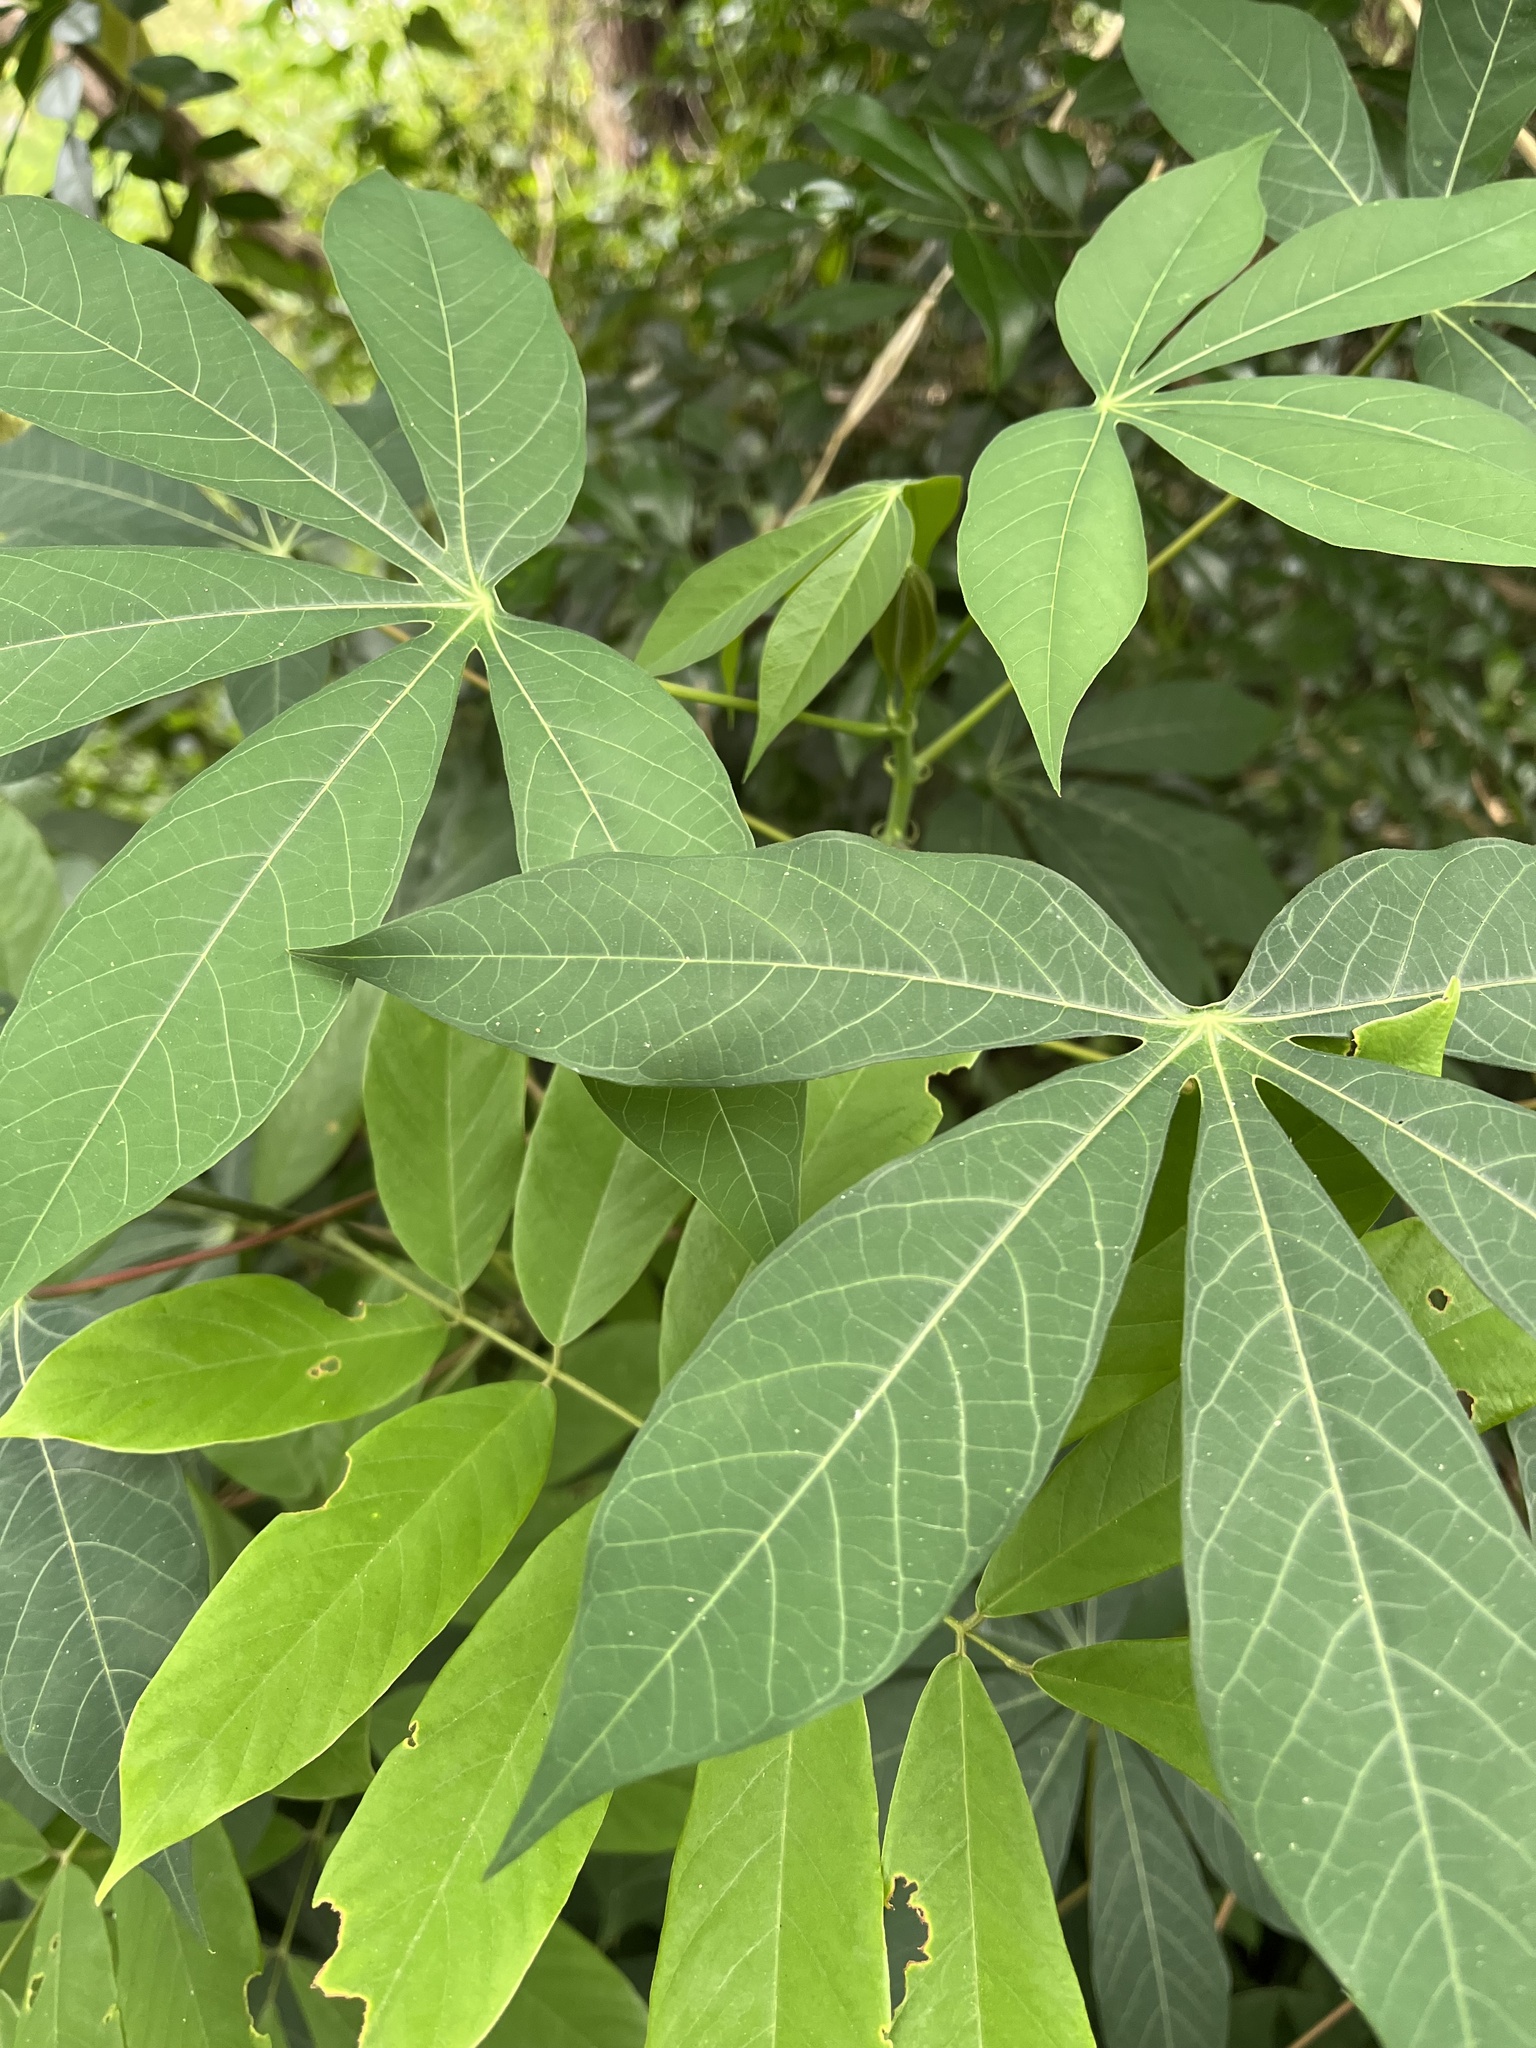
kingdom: Plantae
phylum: Tracheophyta
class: Magnoliopsida
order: Malpighiales
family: Euphorbiaceae
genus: Manihot
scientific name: Manihot esculenta
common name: Cassava
